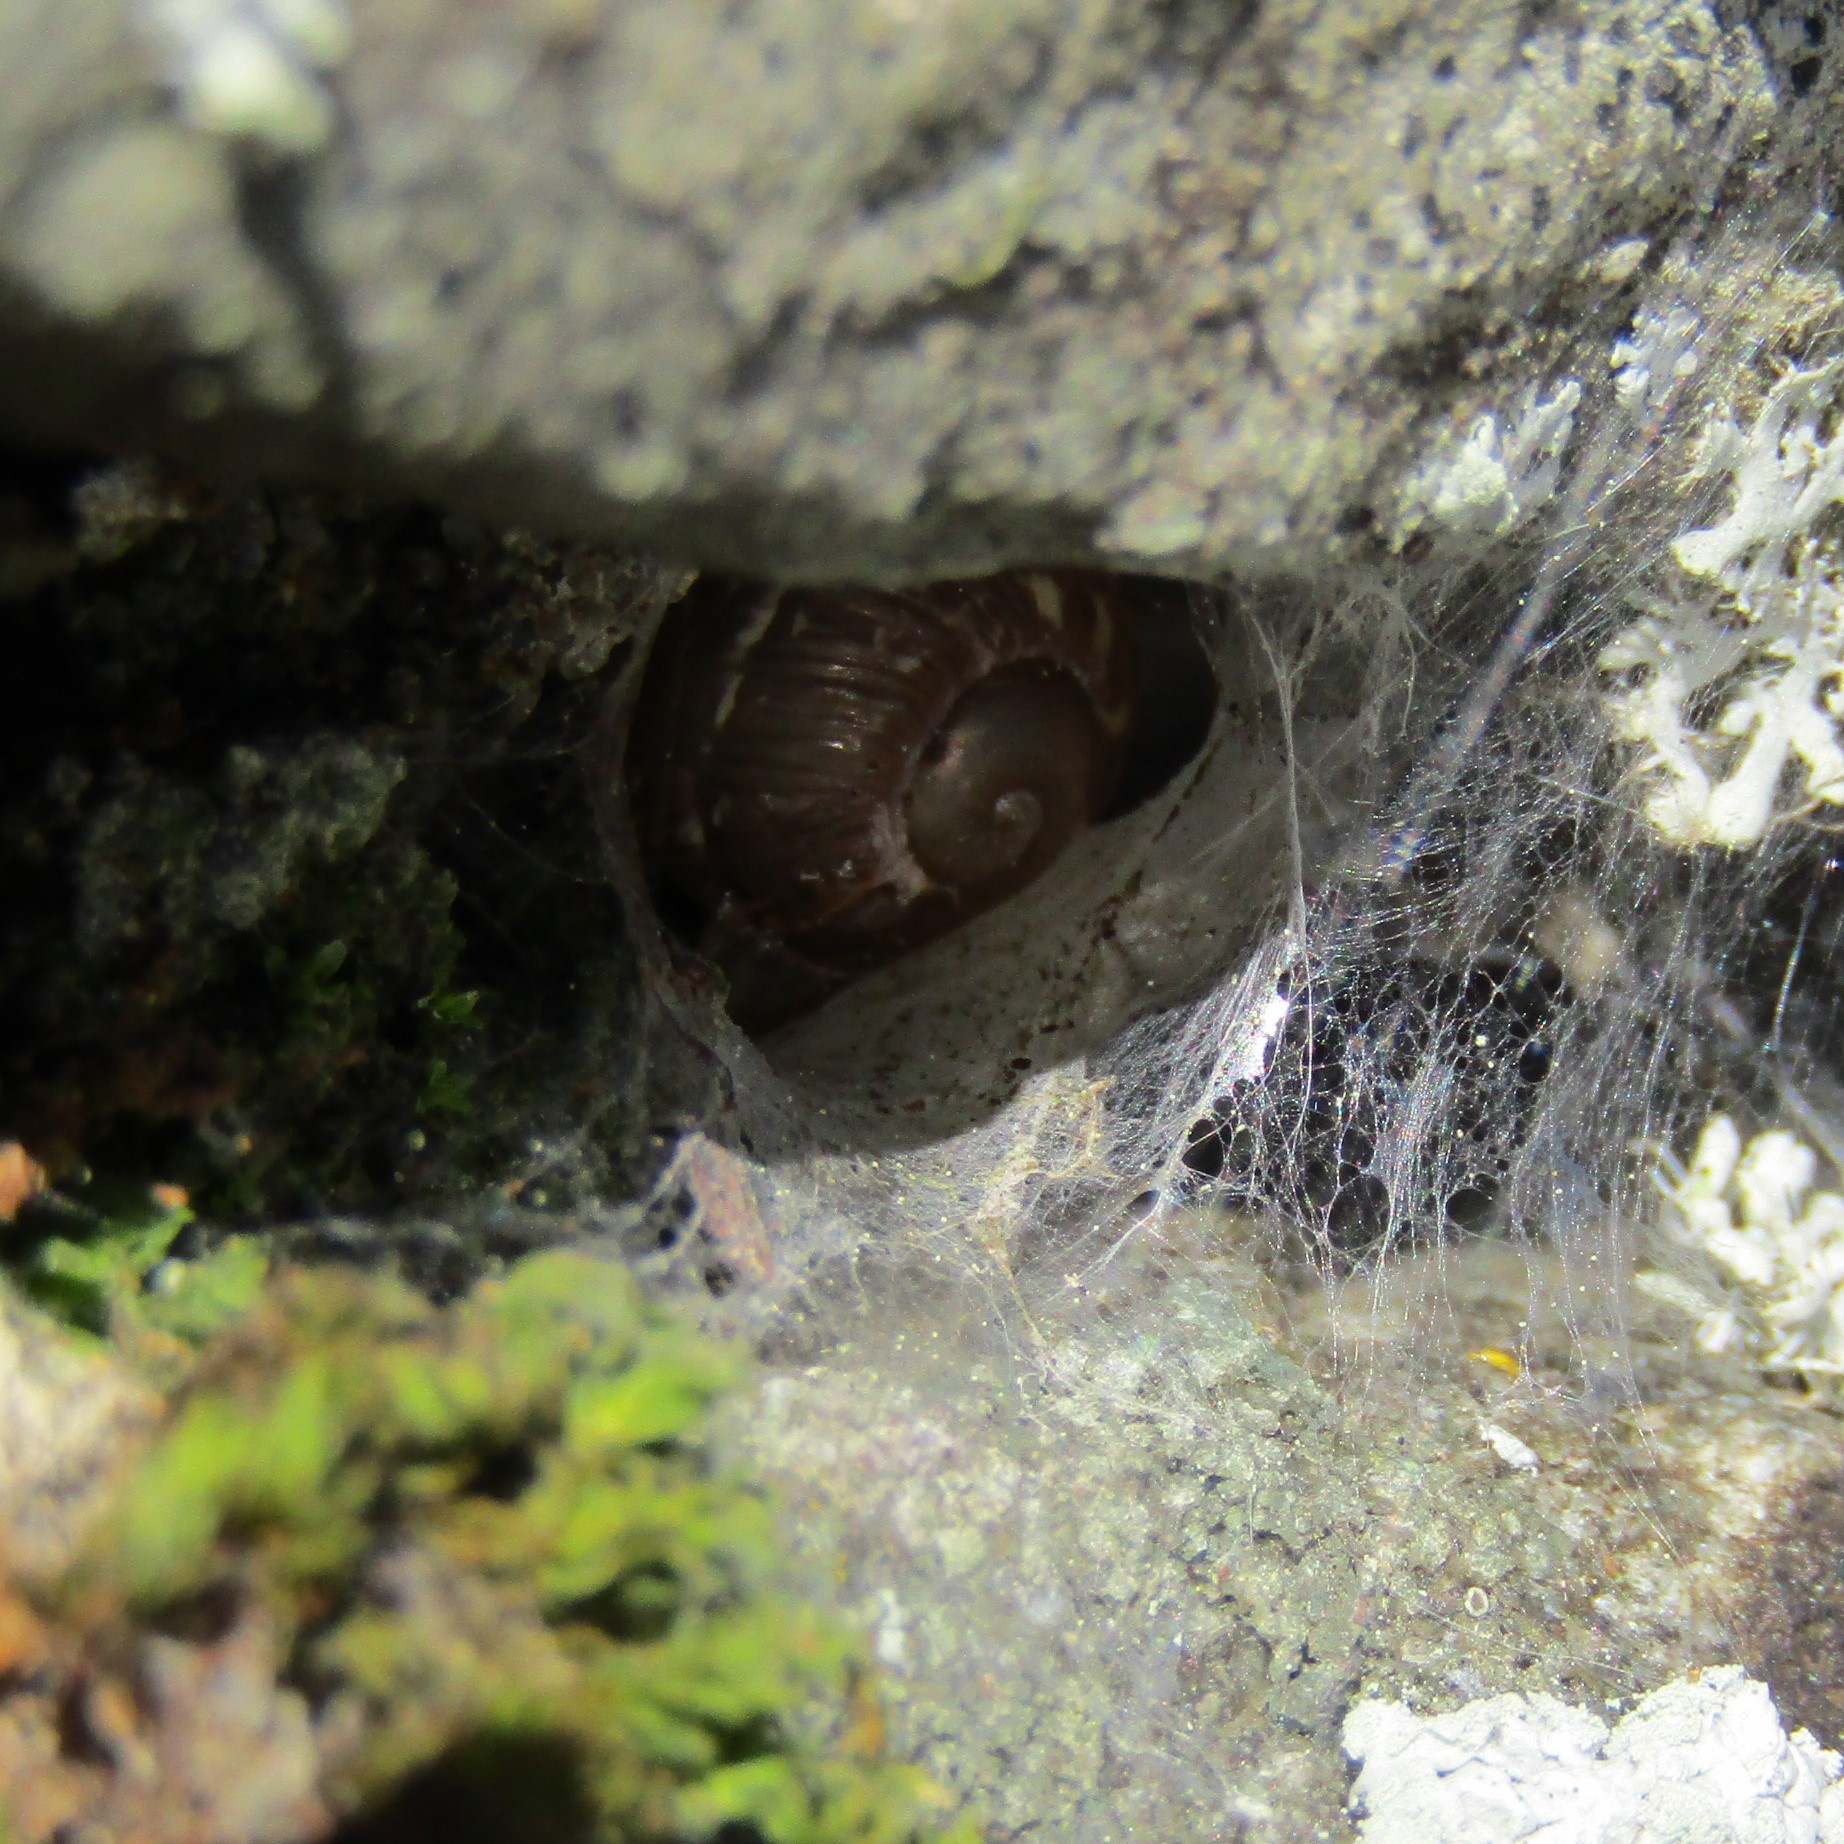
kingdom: Animalia
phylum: Mollusca
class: Gastropoda
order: Stylommatophora
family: Helicidae
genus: Cornu
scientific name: Cornu aspersum
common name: Brown garden snail
